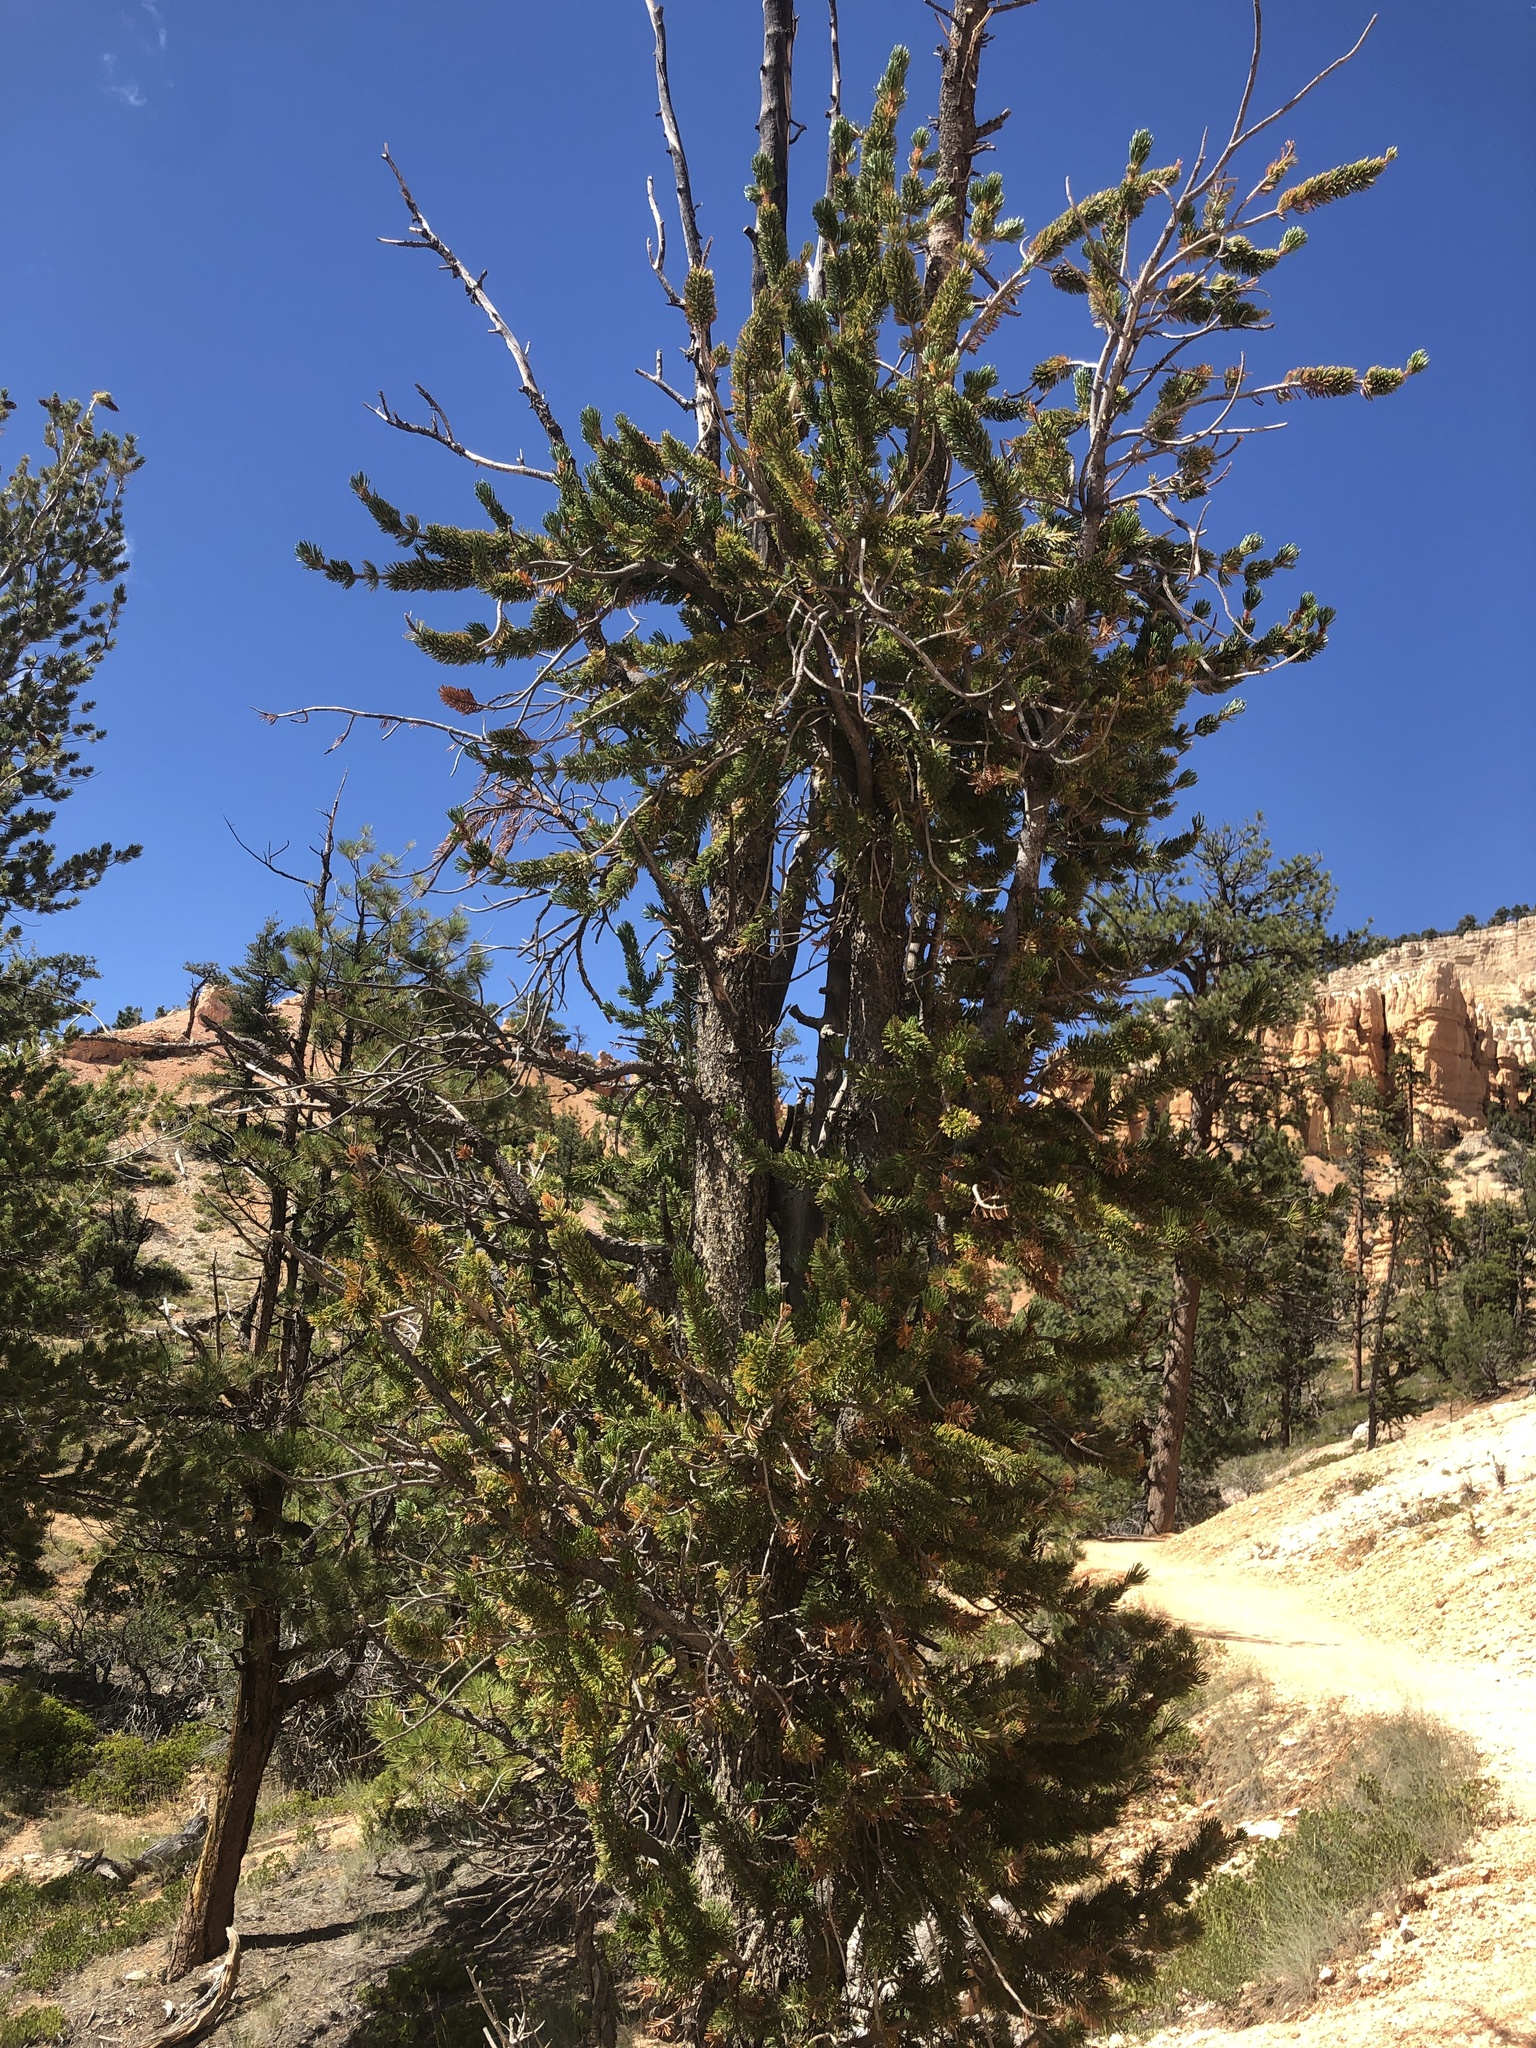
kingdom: Plantae
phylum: Tracheophyta
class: Pinopsida
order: Pinales
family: Pinaceae
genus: Pinus
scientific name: Pinus longaeva
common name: Intermountain bristlecone pine
